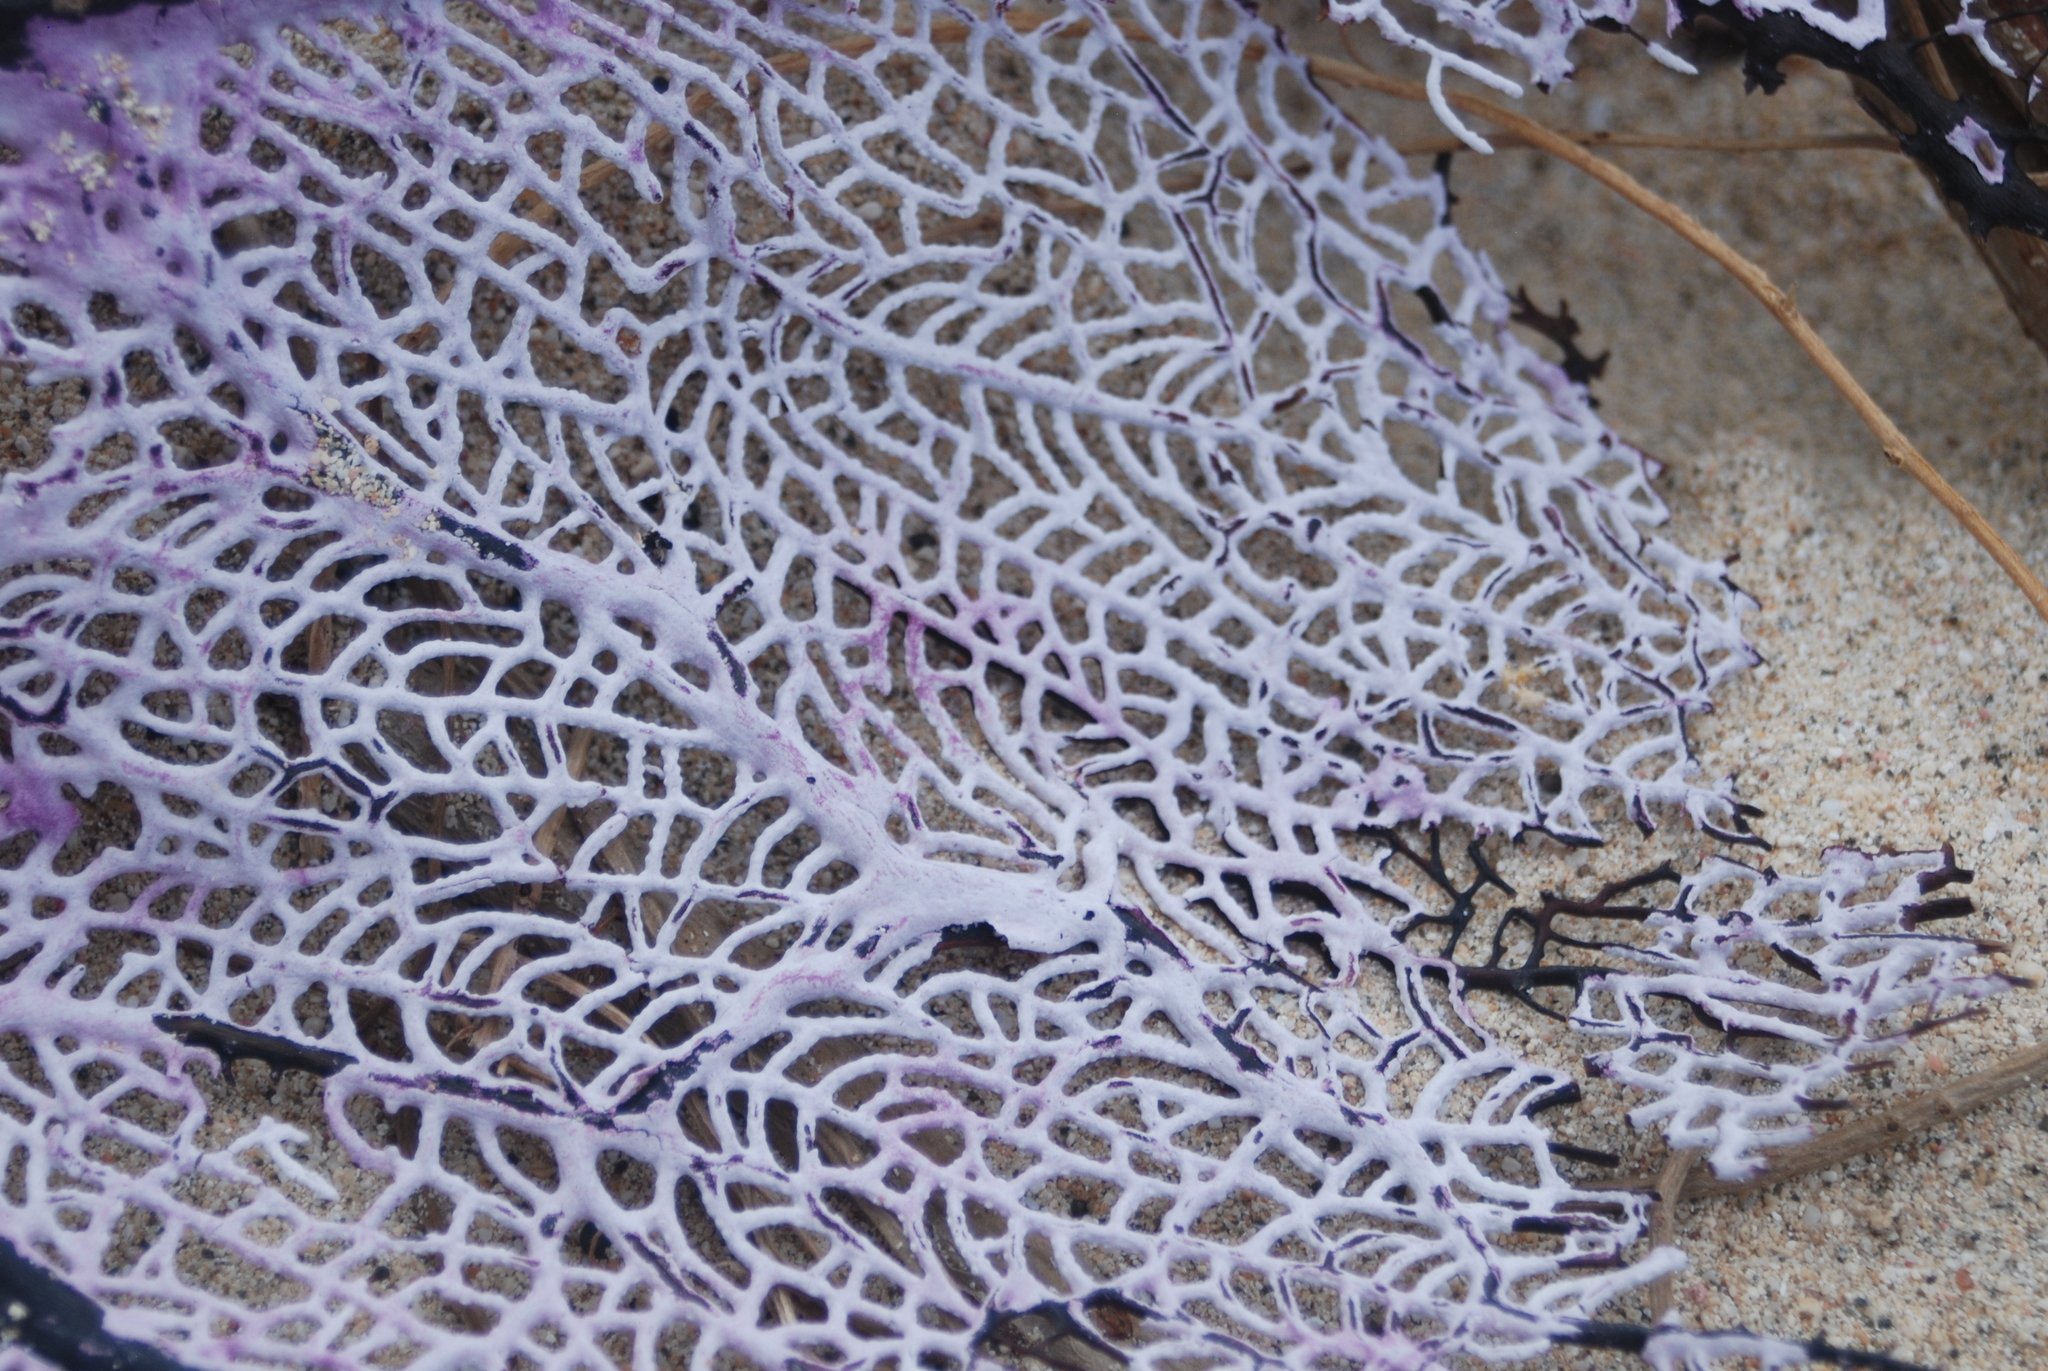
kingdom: Animalia
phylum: Cnidaria
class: Anthozoa
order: Malacalcyonacea
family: Gorgoniidae
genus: Gorgonia
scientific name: Gorgonia ventalina
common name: Common sea fan
